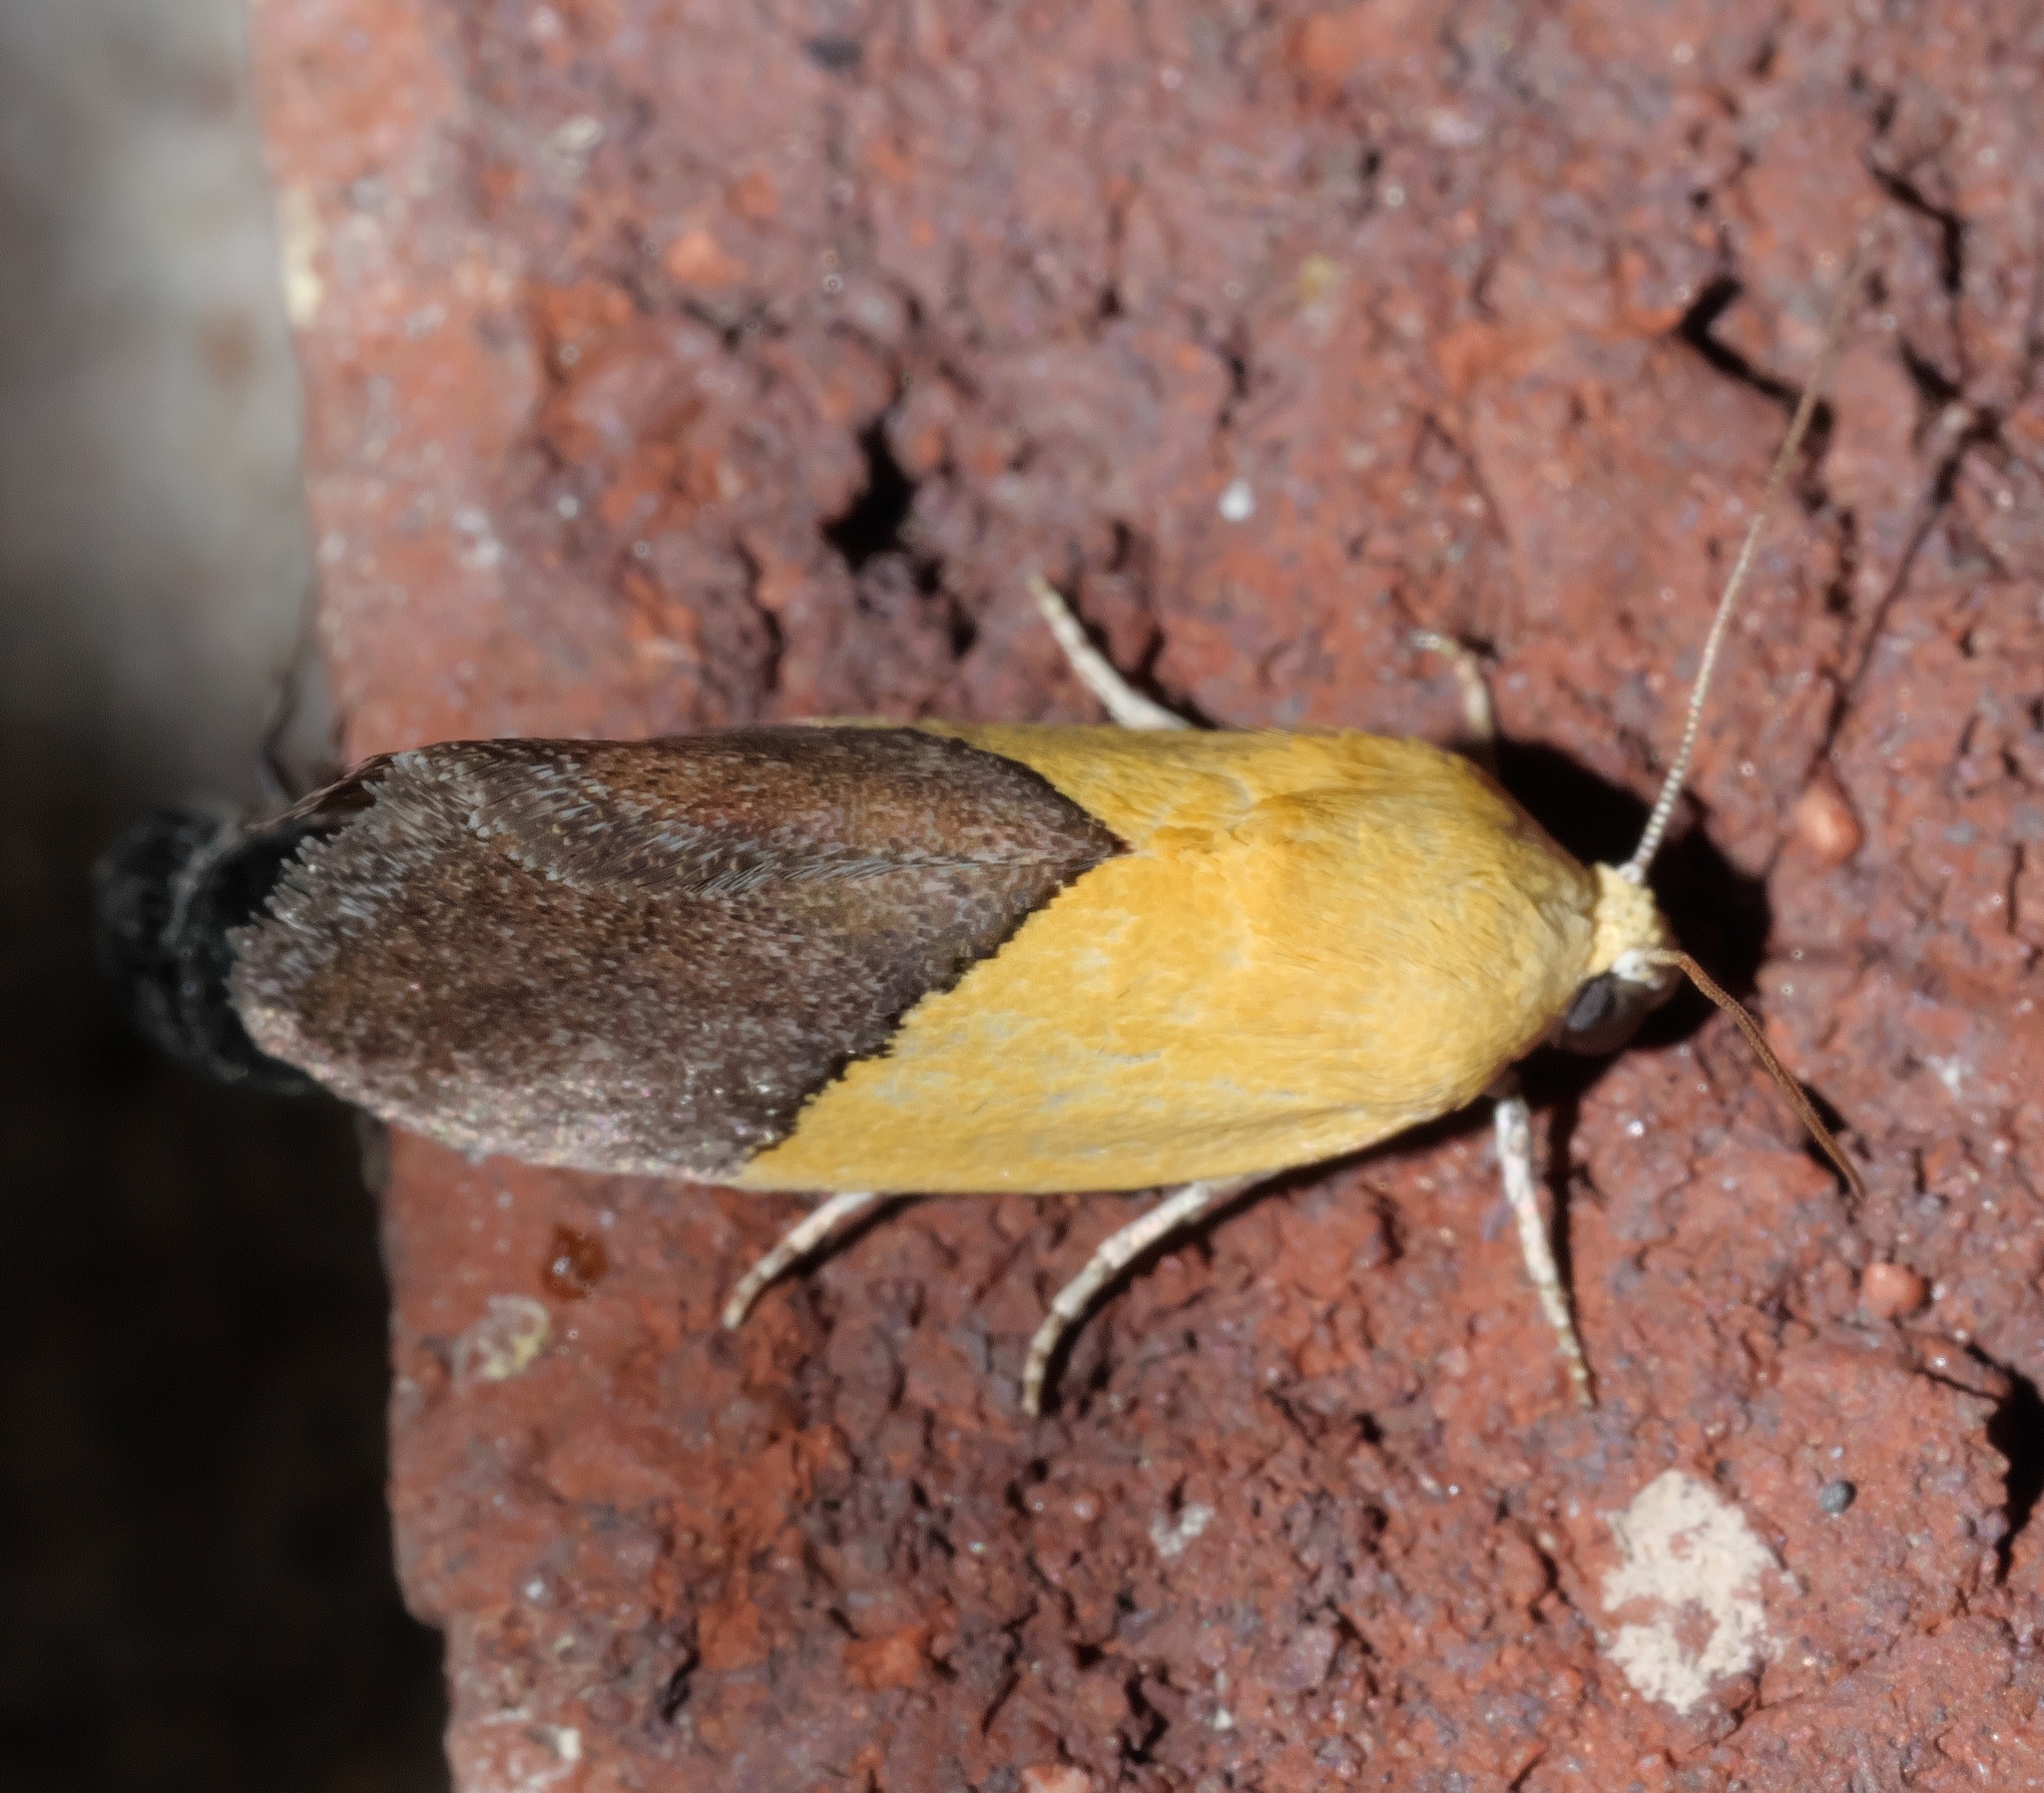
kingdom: Animalia
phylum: Arthropoda
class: Insecta
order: Lepidoptera
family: Noctuidae
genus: Acontia
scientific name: Acontia semiflava
